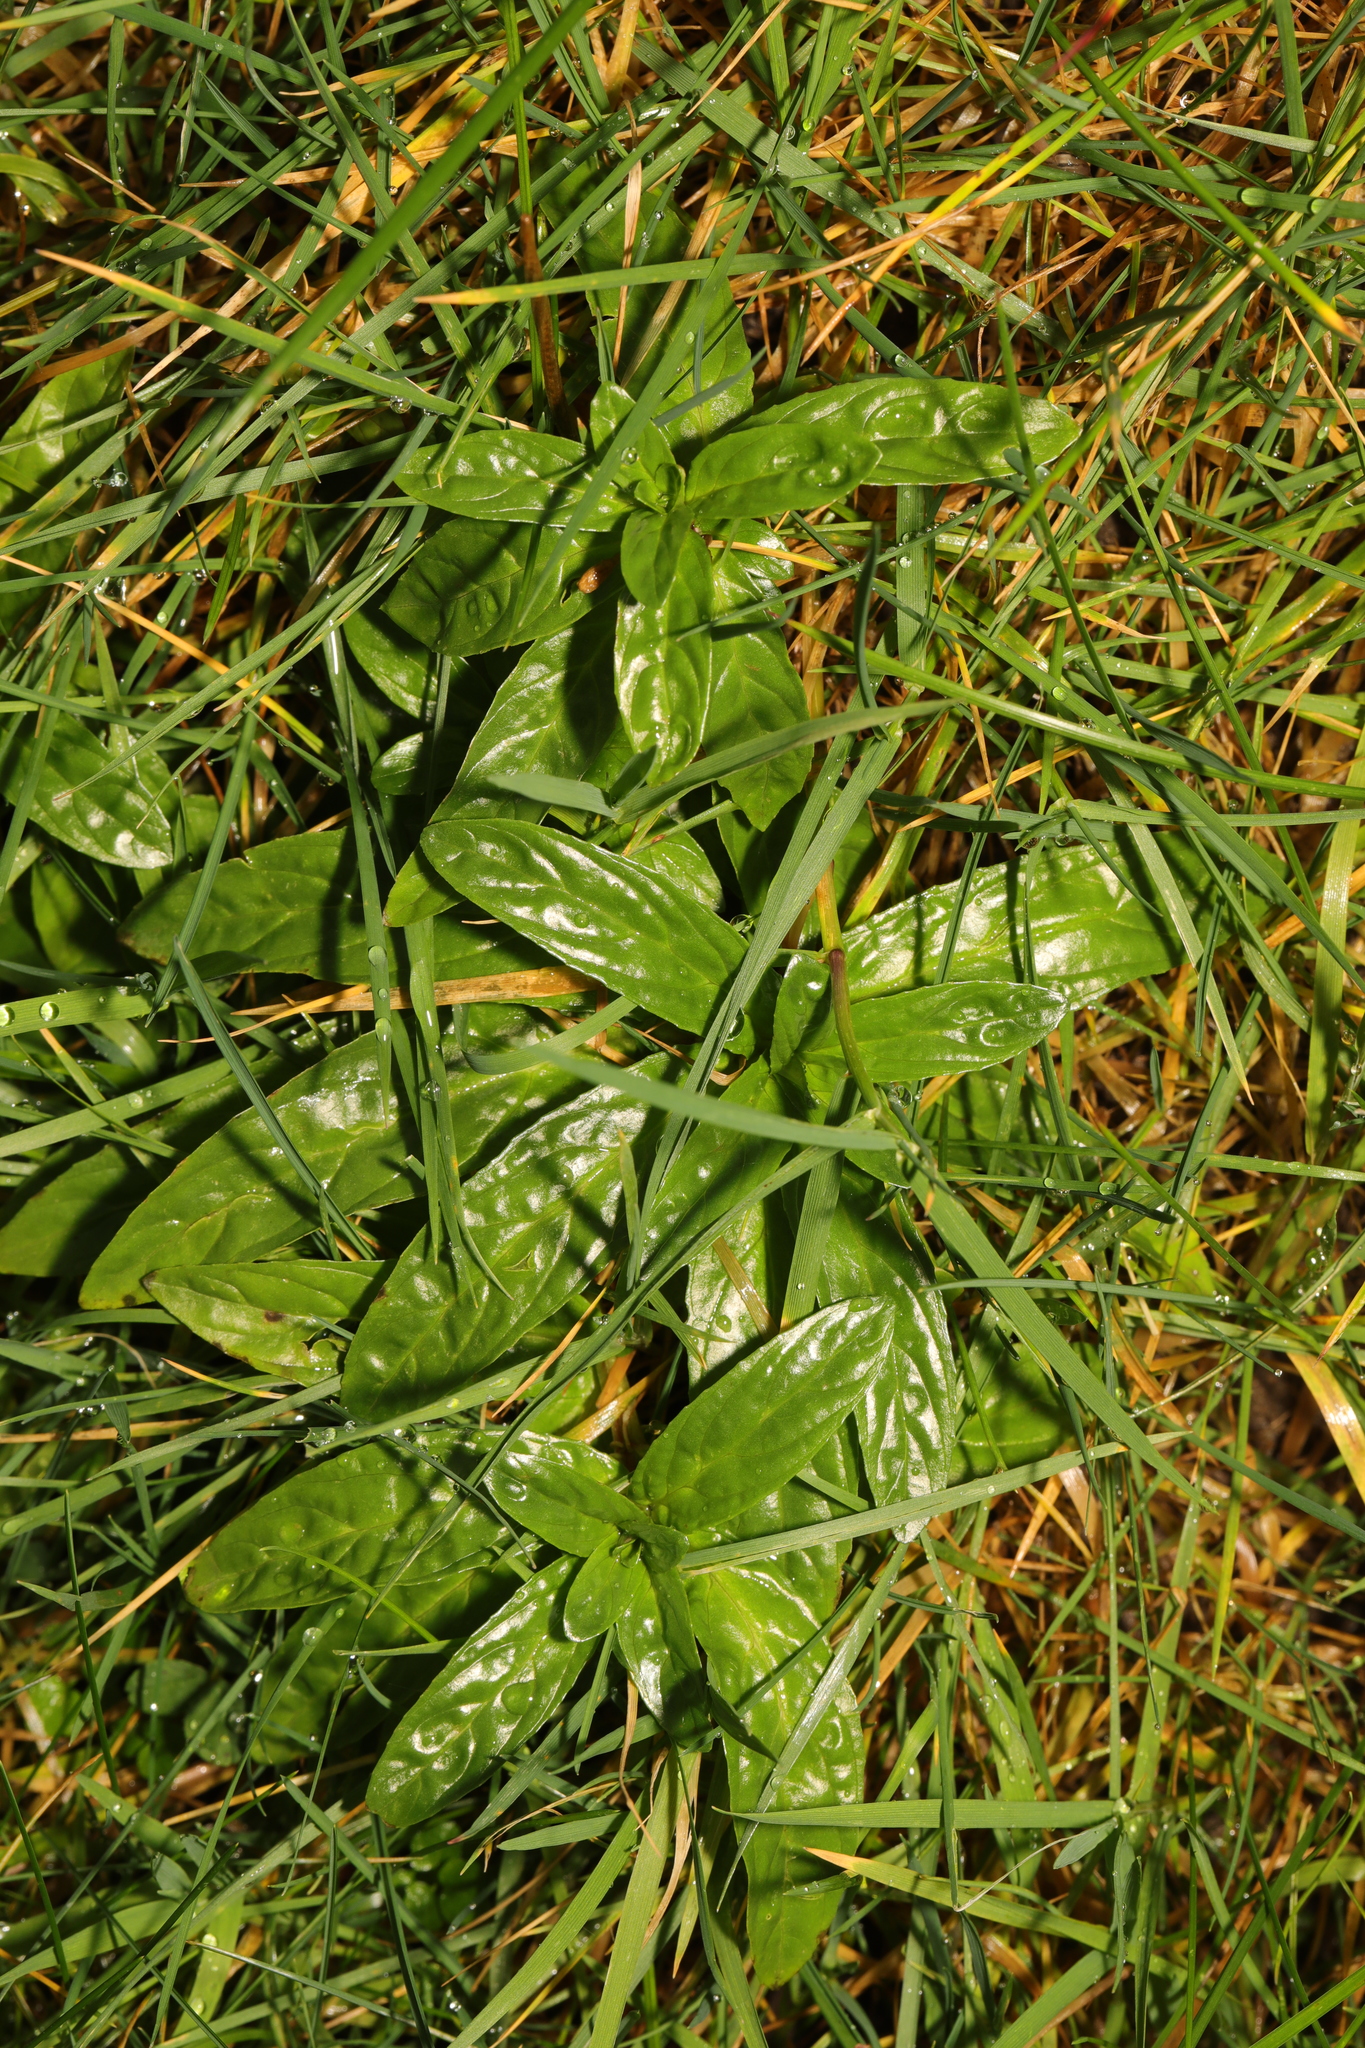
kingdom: Plantae
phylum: Tracheophyta
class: Magnoliopsida
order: Myrtales
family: Onagraceae
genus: Epilobium
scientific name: Epilobium montanum
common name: Broad-leaved willowherb
